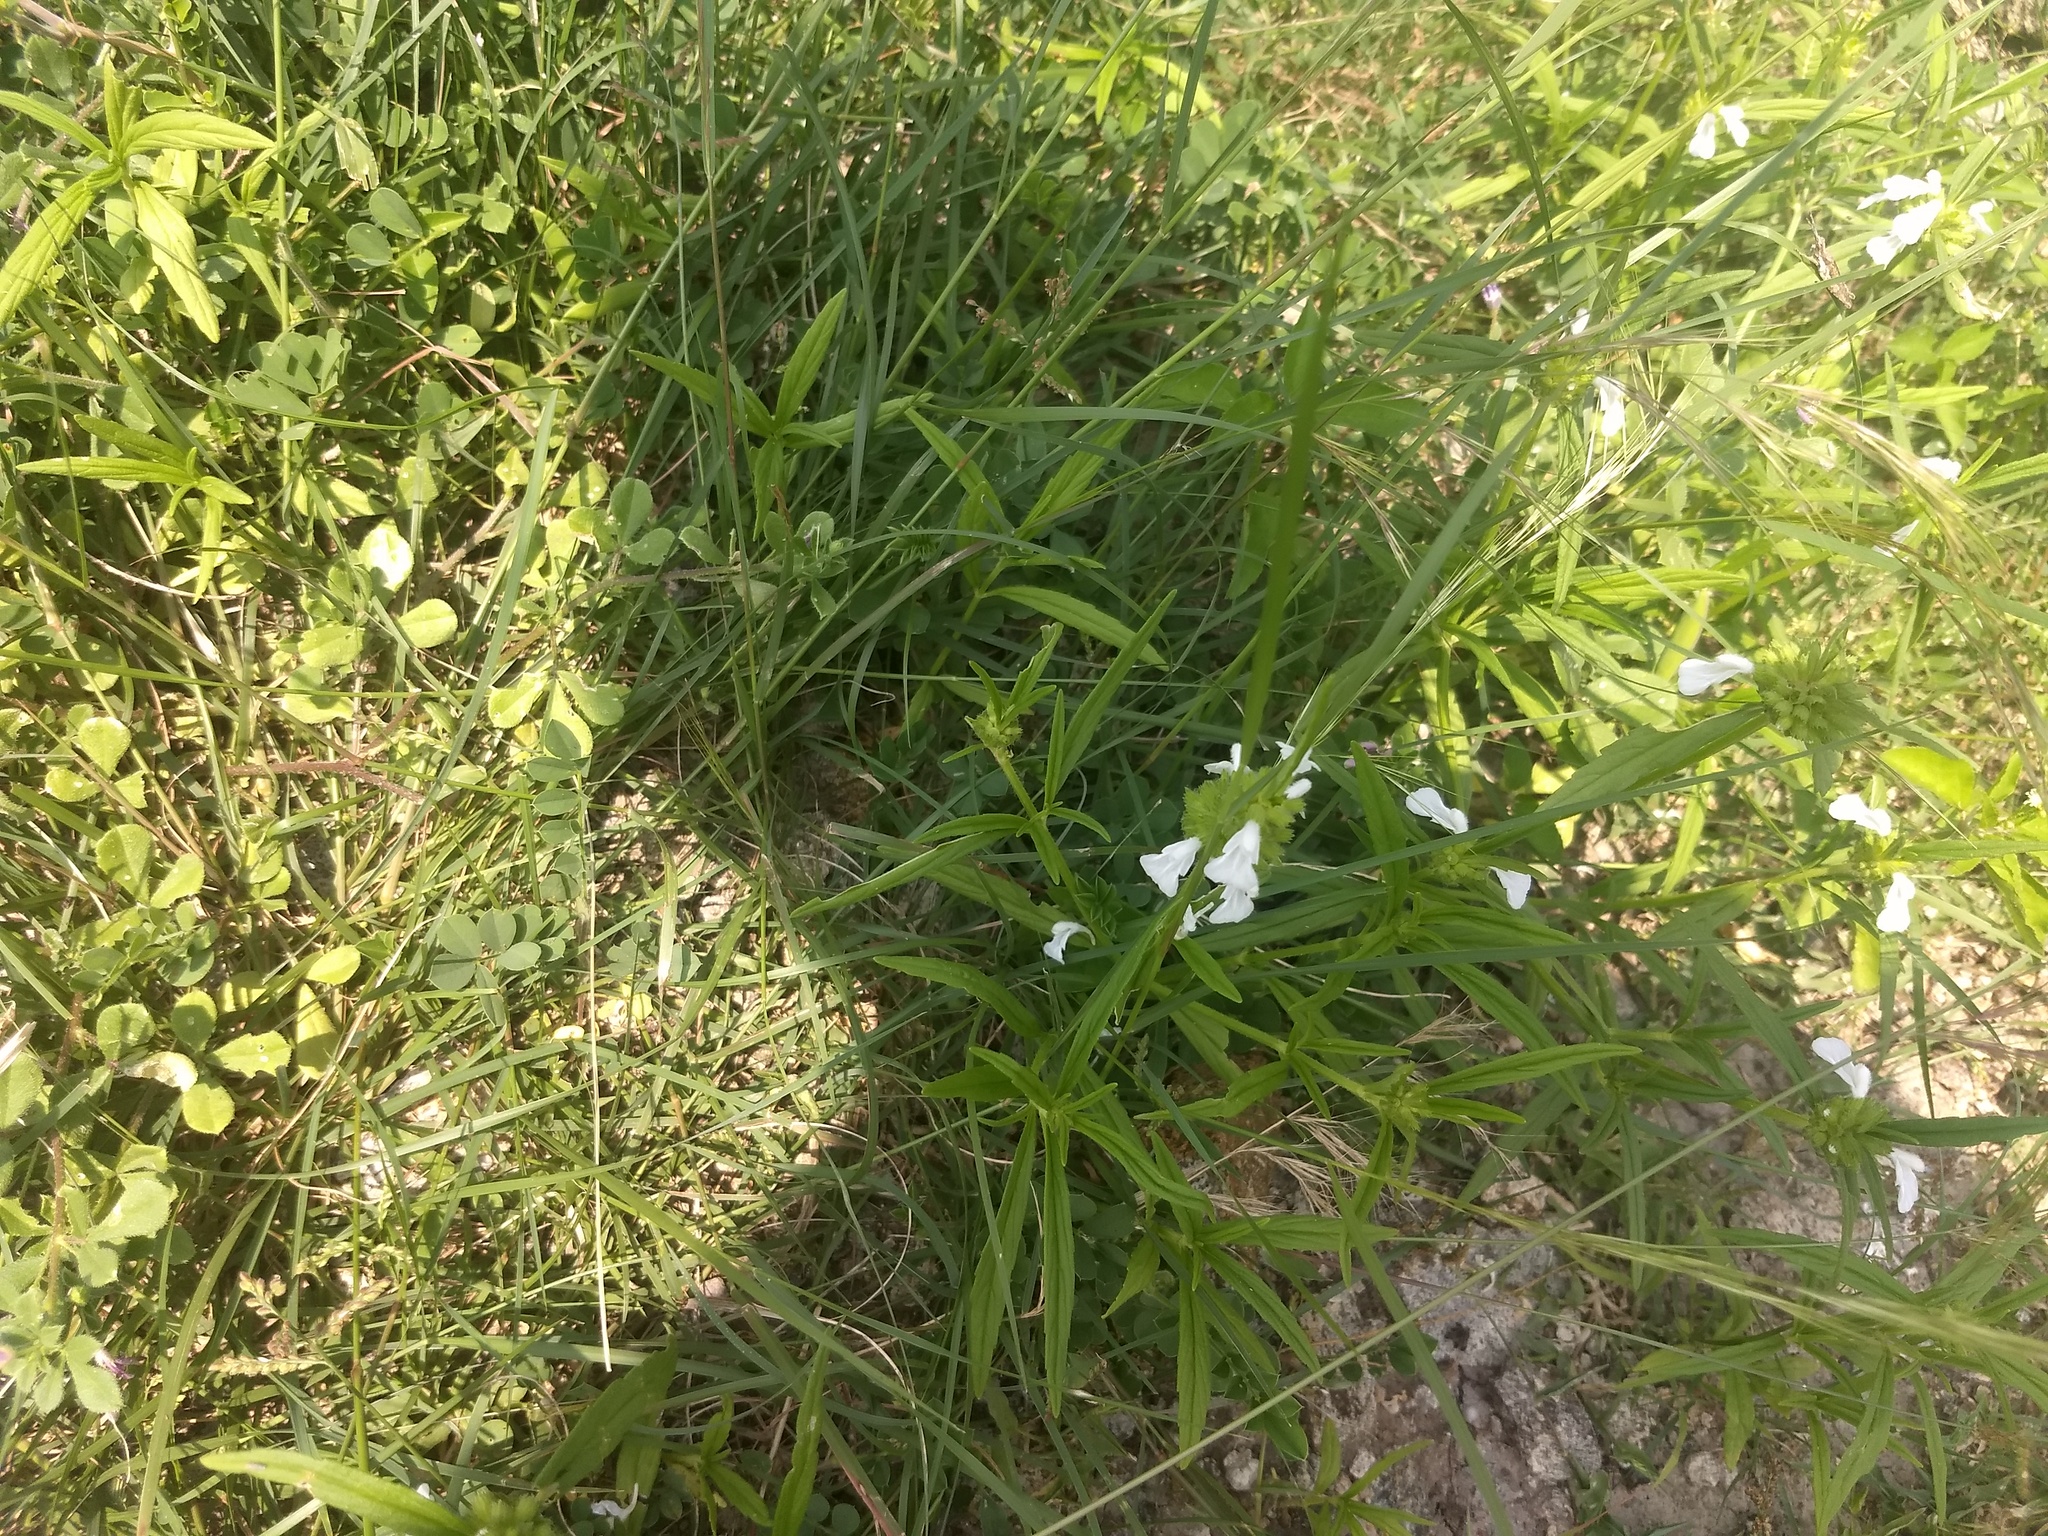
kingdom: Plantae
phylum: Tracheophyta
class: Magnoliopsida
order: Lamiales
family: Lamiaceae
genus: Leucas
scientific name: Leucas aspera
